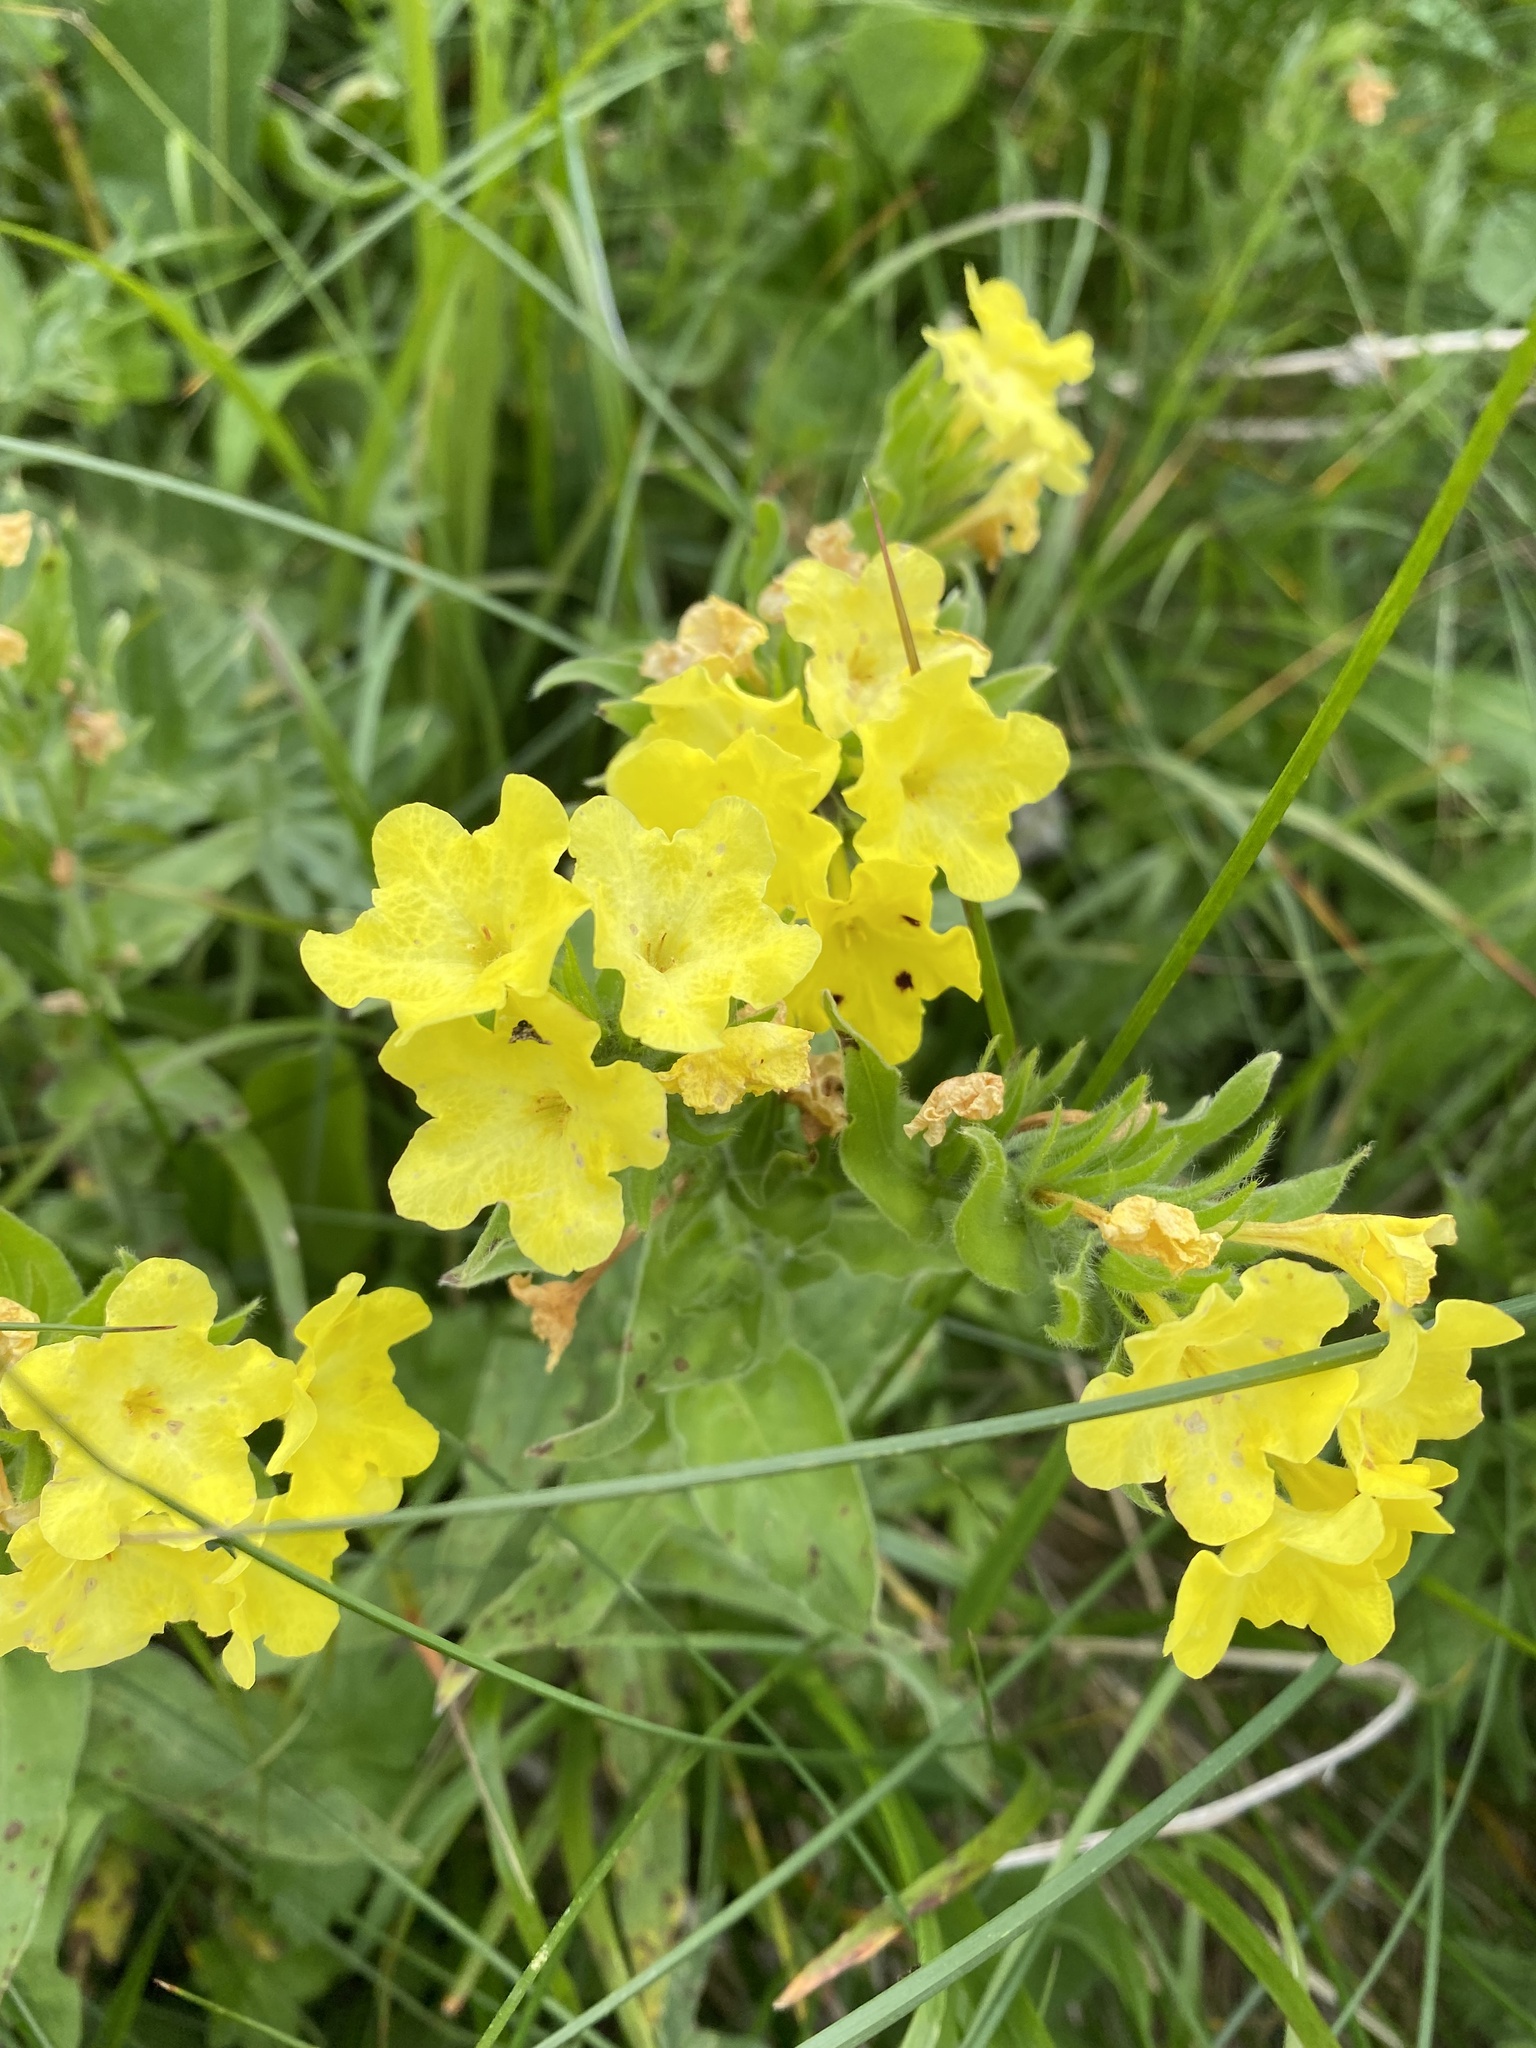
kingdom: Plantae
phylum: Tracheophyta
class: Magnoliopsida
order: Boraginales
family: Boraginaceae
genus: Huynhia
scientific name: Huynhia pulchra
